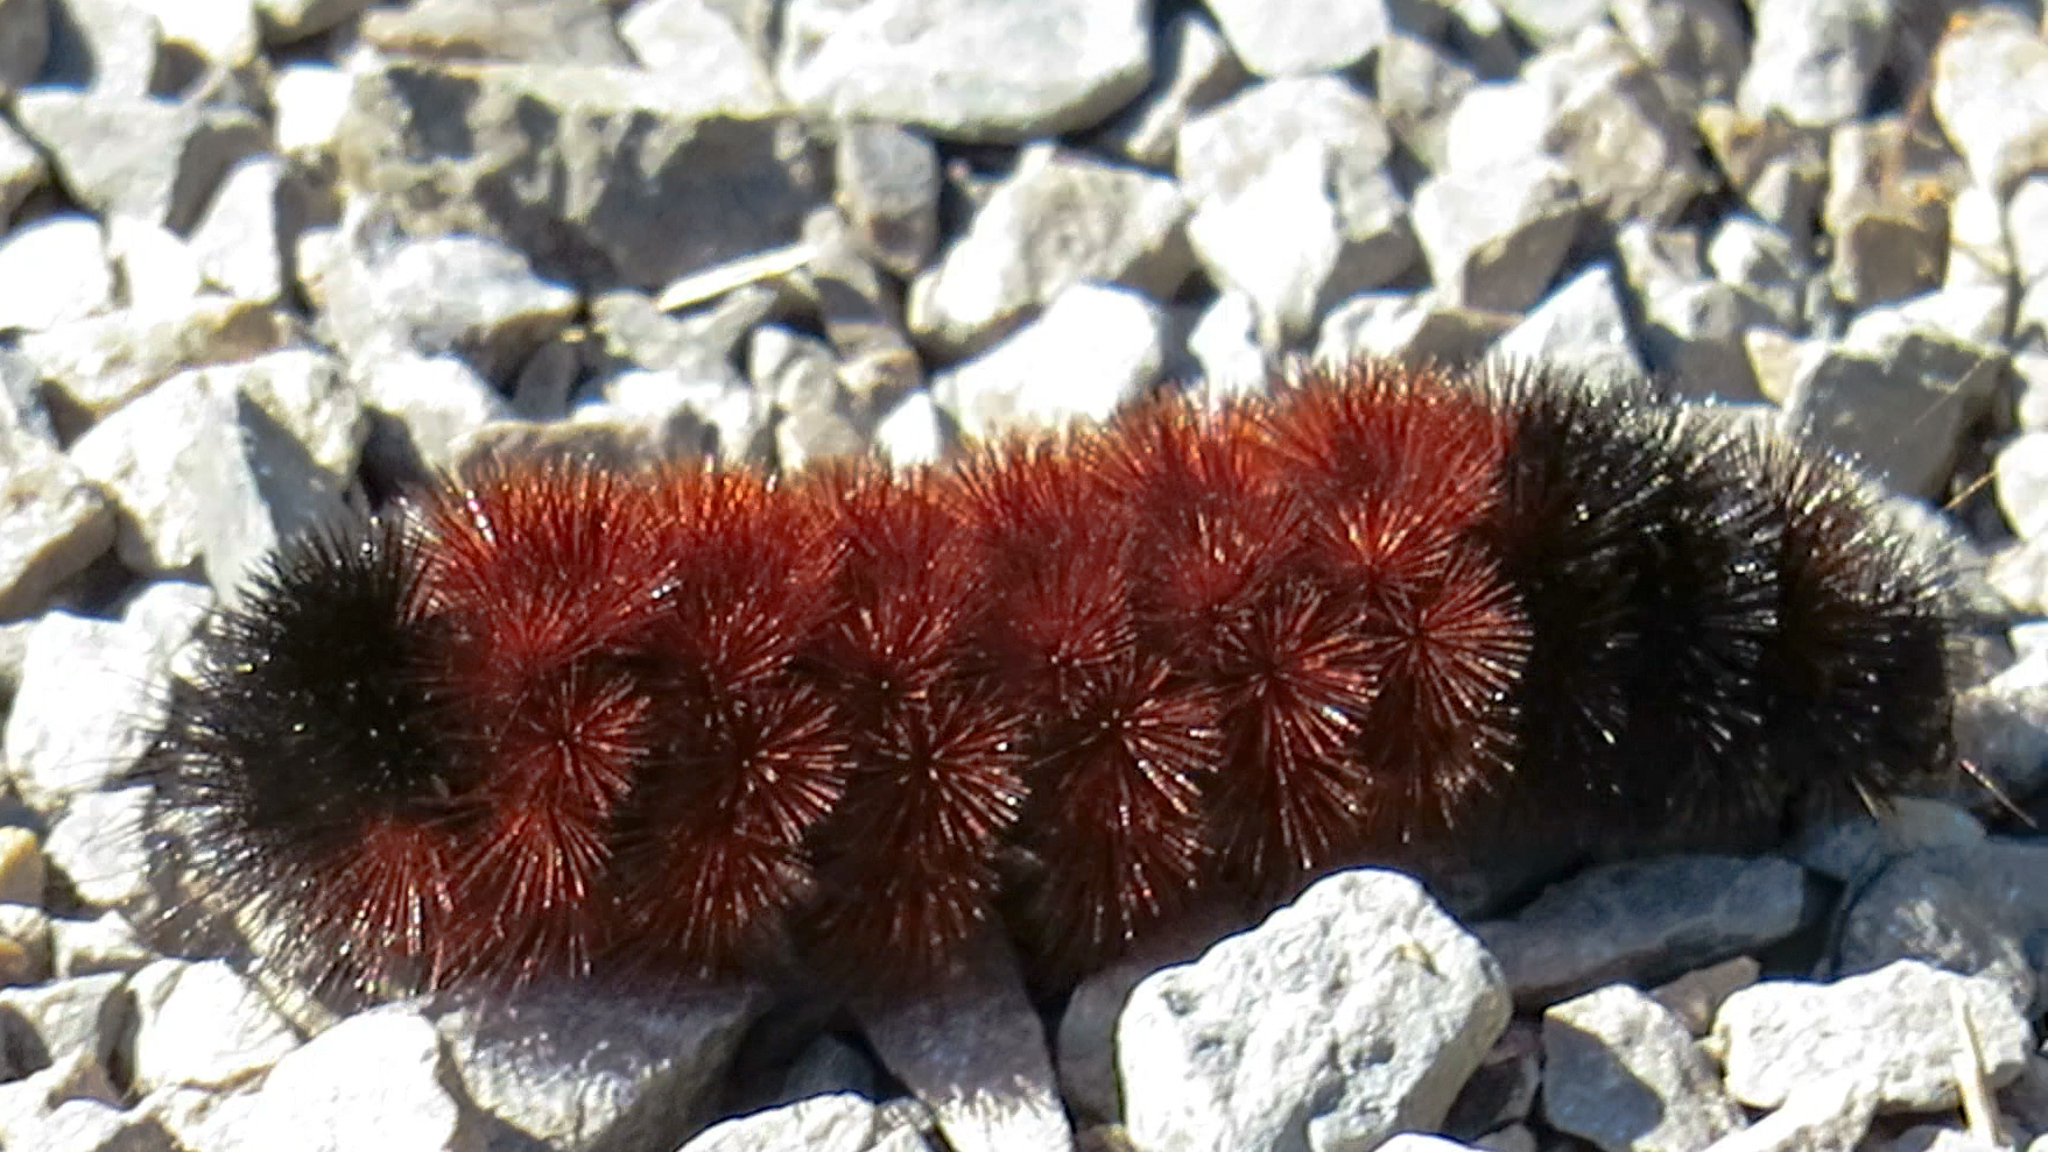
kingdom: Animalia
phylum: Arthropoda
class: Insecta
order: Lepidoptera
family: Erebidae
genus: Pyrrharctia
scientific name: Pyrrharctia isabella
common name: Isabella tiger moth
